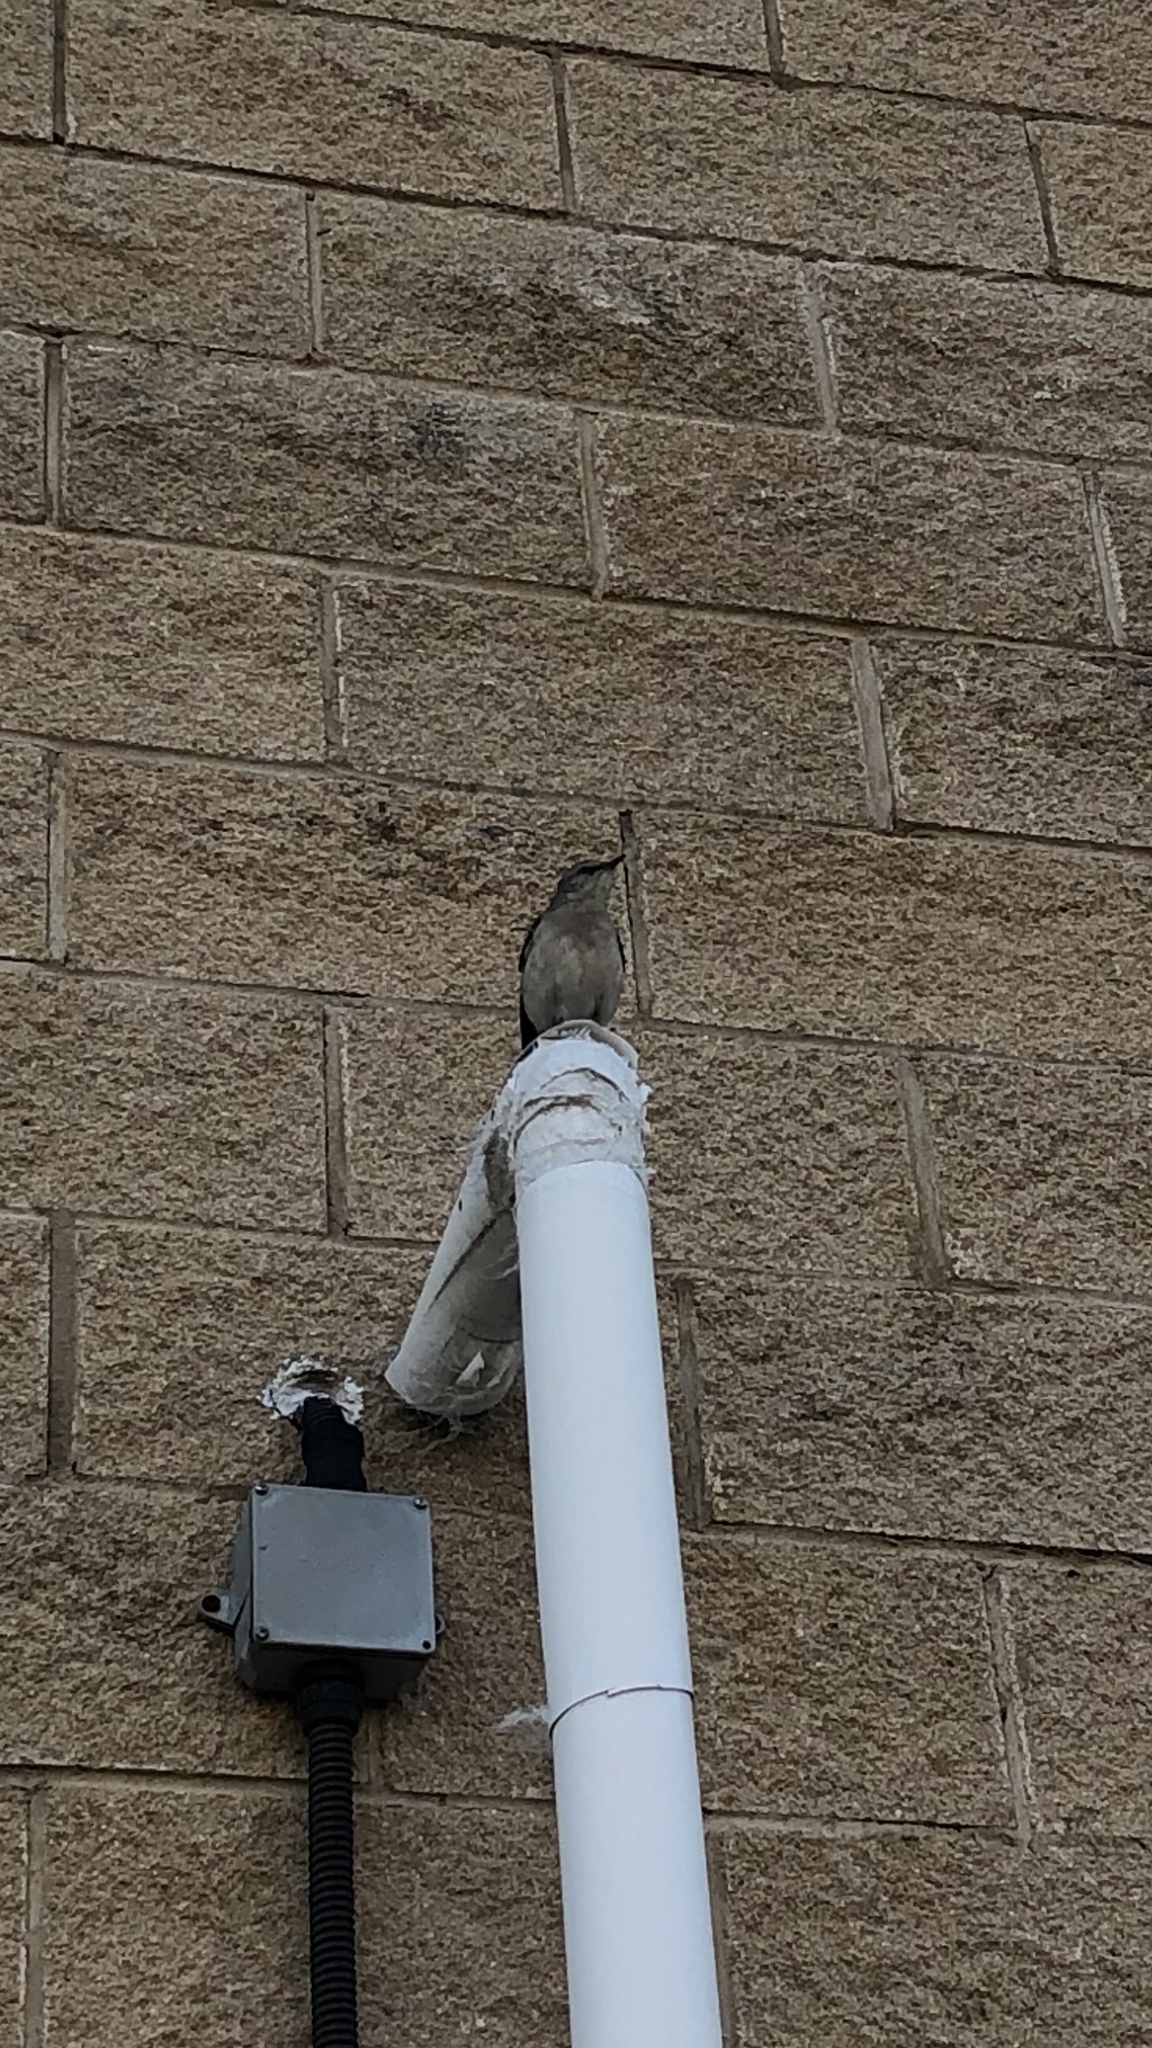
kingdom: Animalia
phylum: Chordata
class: Aves
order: Passeriformes
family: Mimidae
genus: Mimus
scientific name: Mimus polyglottos
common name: Northern mockingbird
